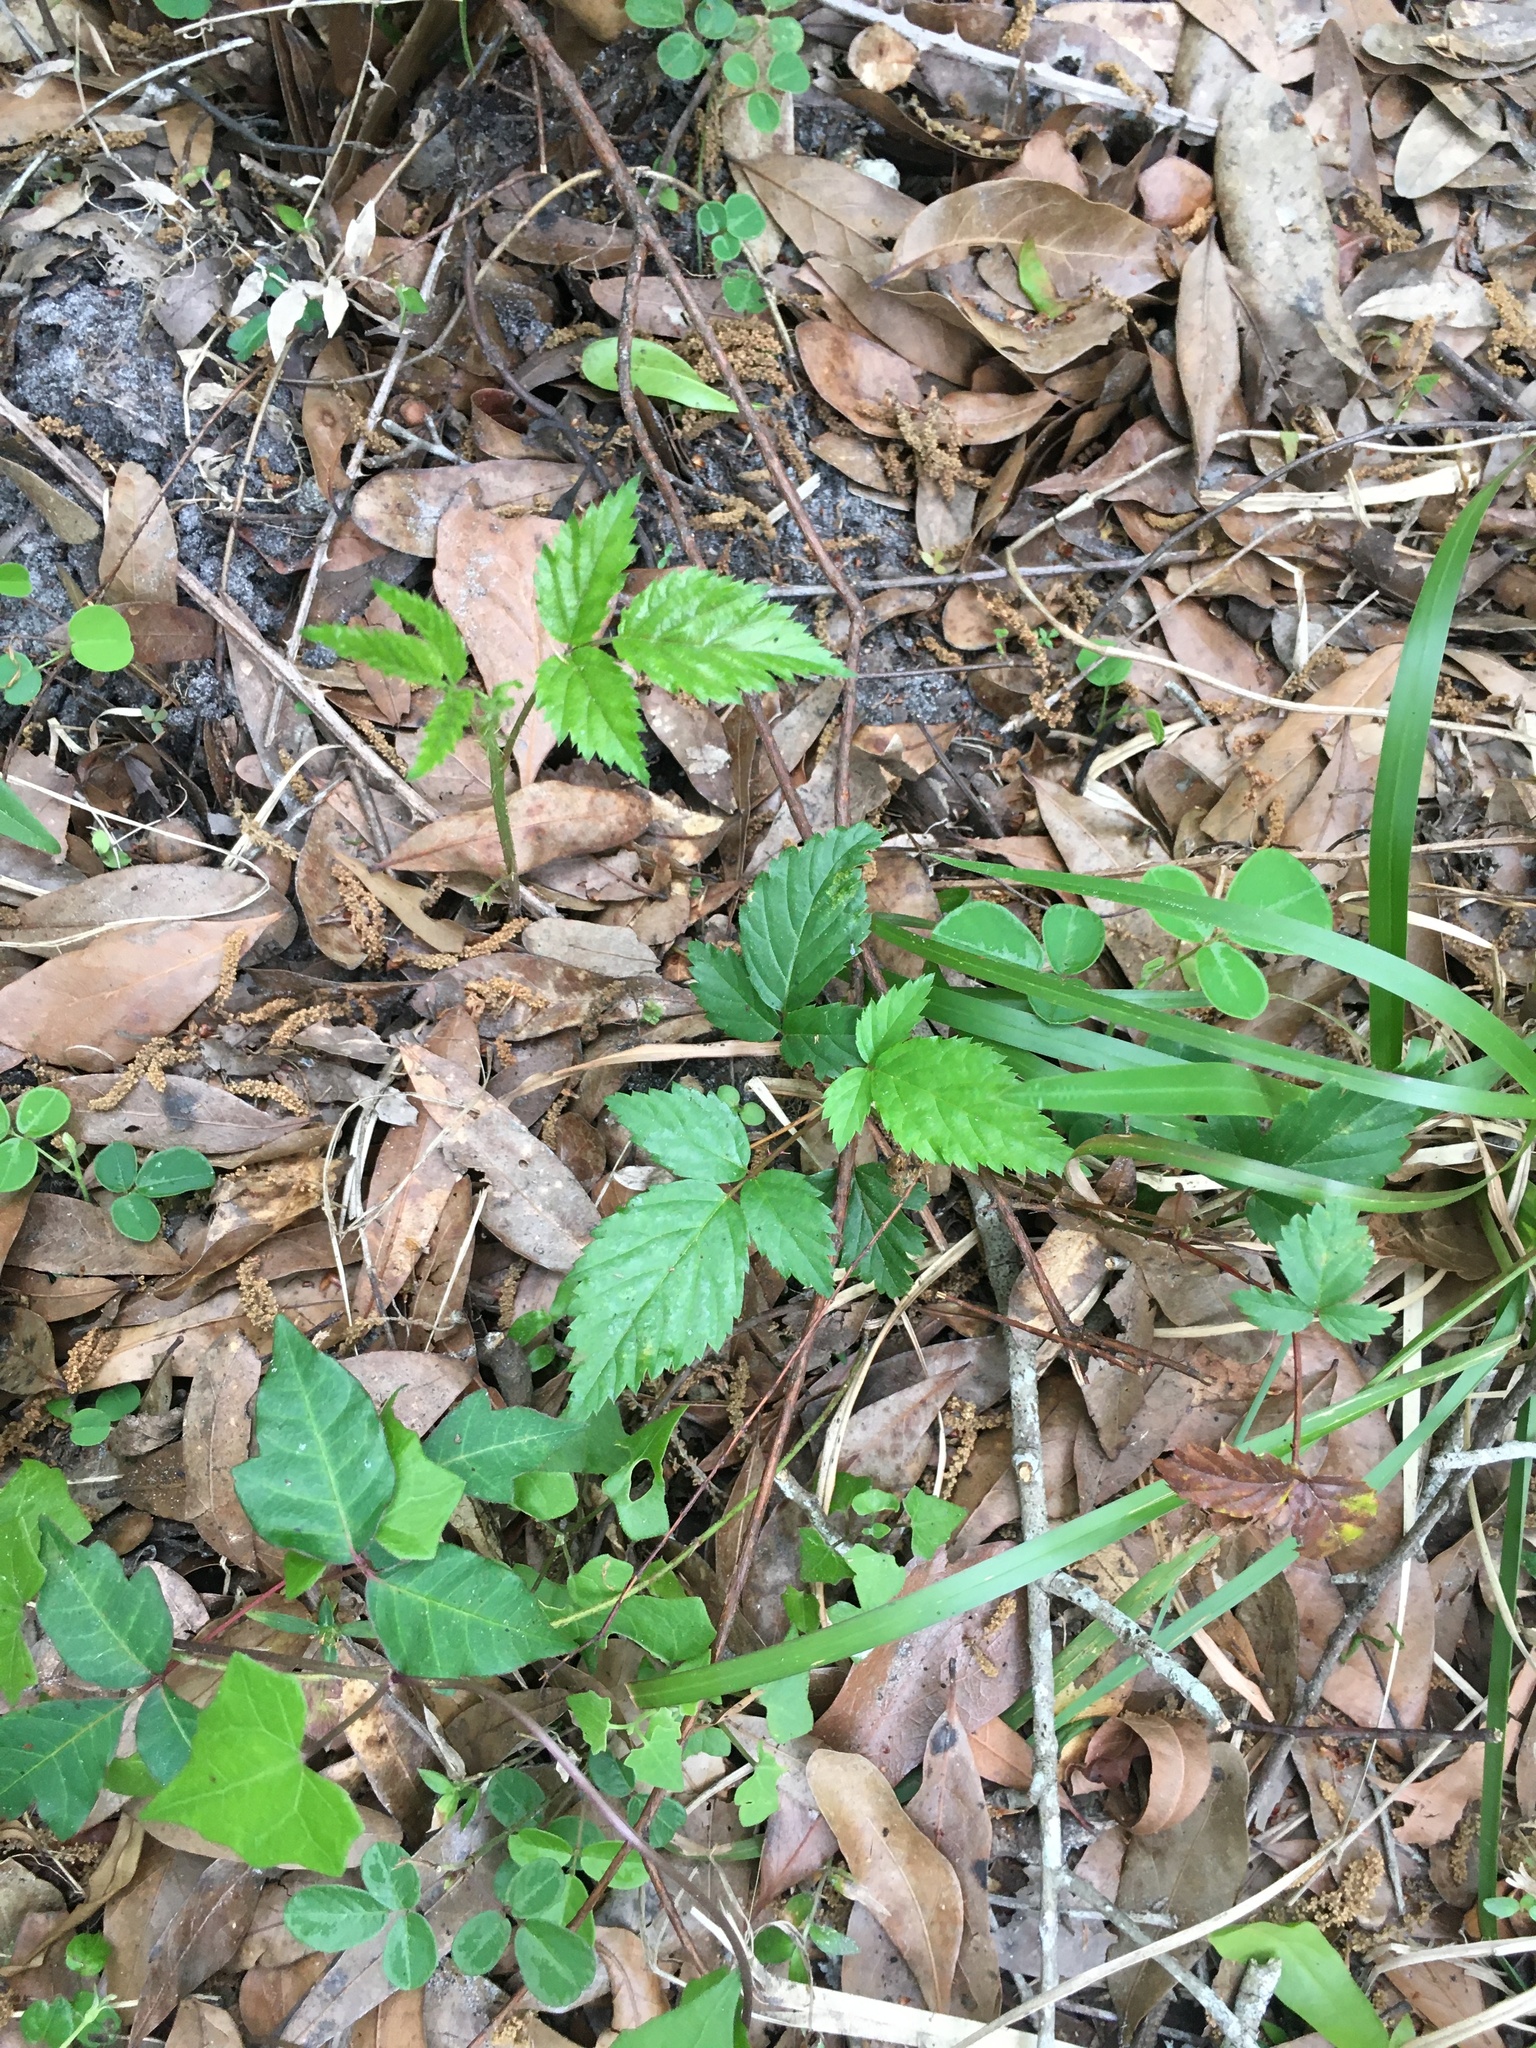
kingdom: Plantae
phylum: Tracheophyta
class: Magnoliopsida
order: Rosales
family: Rosaceae
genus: Rubus
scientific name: Rubus trivialis
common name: Southern dewberry
